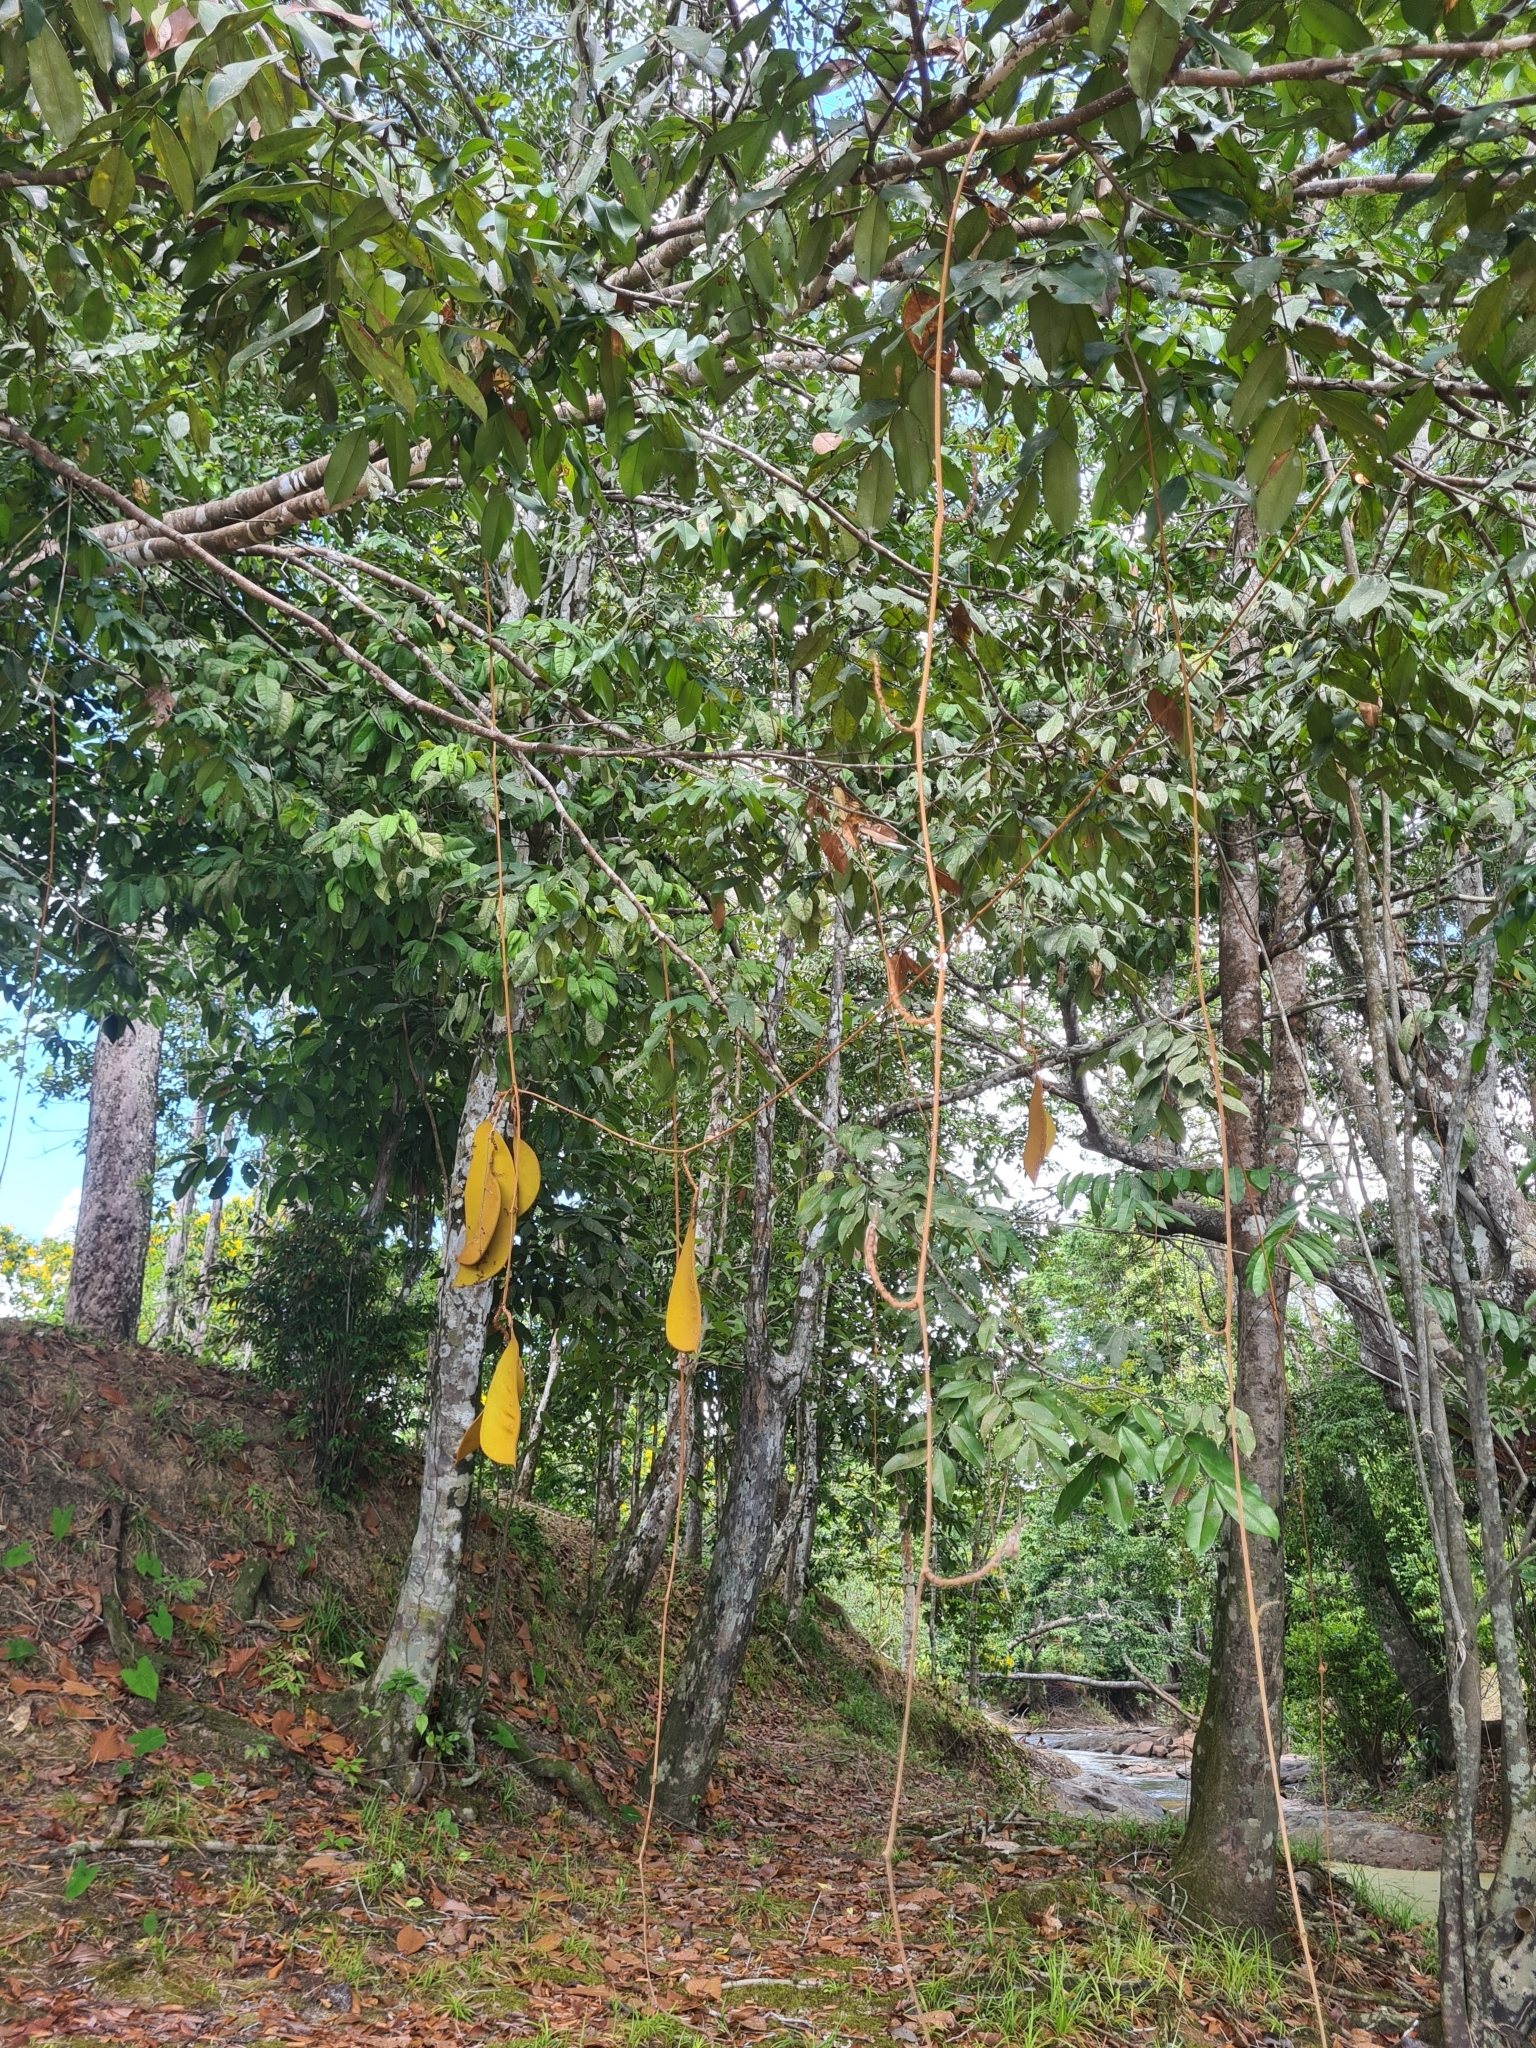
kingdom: Plantae
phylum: Tracheophyta
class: Magnoliopsida
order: Fabales
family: Fabaceae
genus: Eperua
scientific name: Eperua rubiginosa
